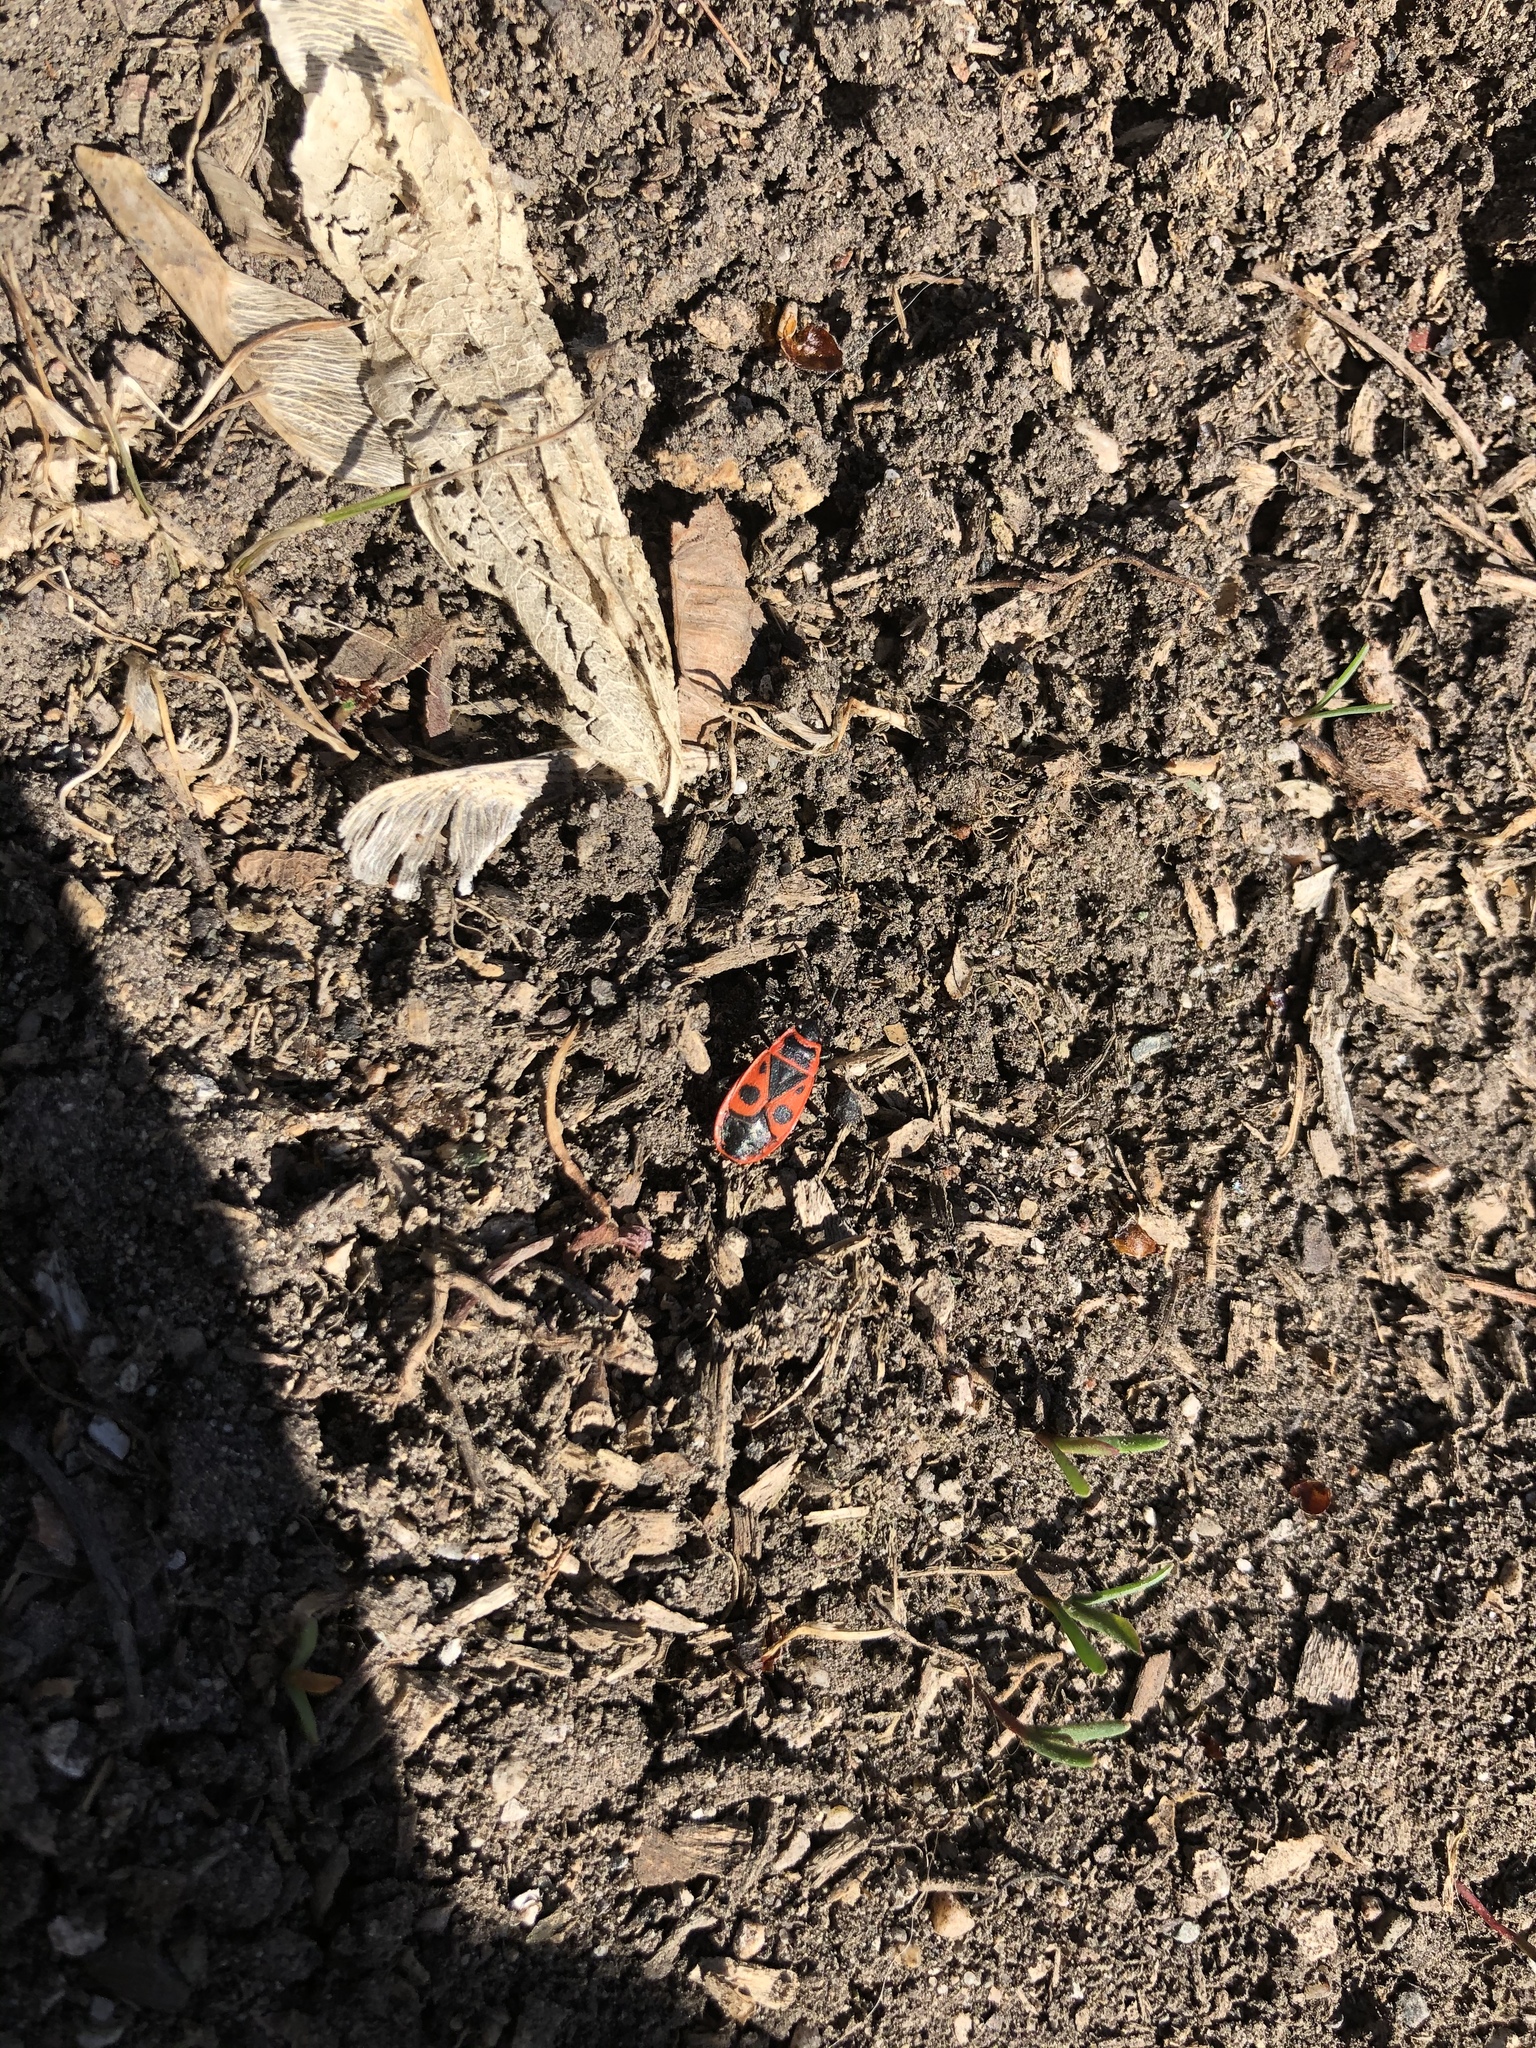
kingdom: Animalia
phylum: Arthropoda
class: Insecta
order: Hemiptera
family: Pyrrhocoridae
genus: Pyrrhocoris
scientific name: Pyrrhocoris apterus
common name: Firebug
